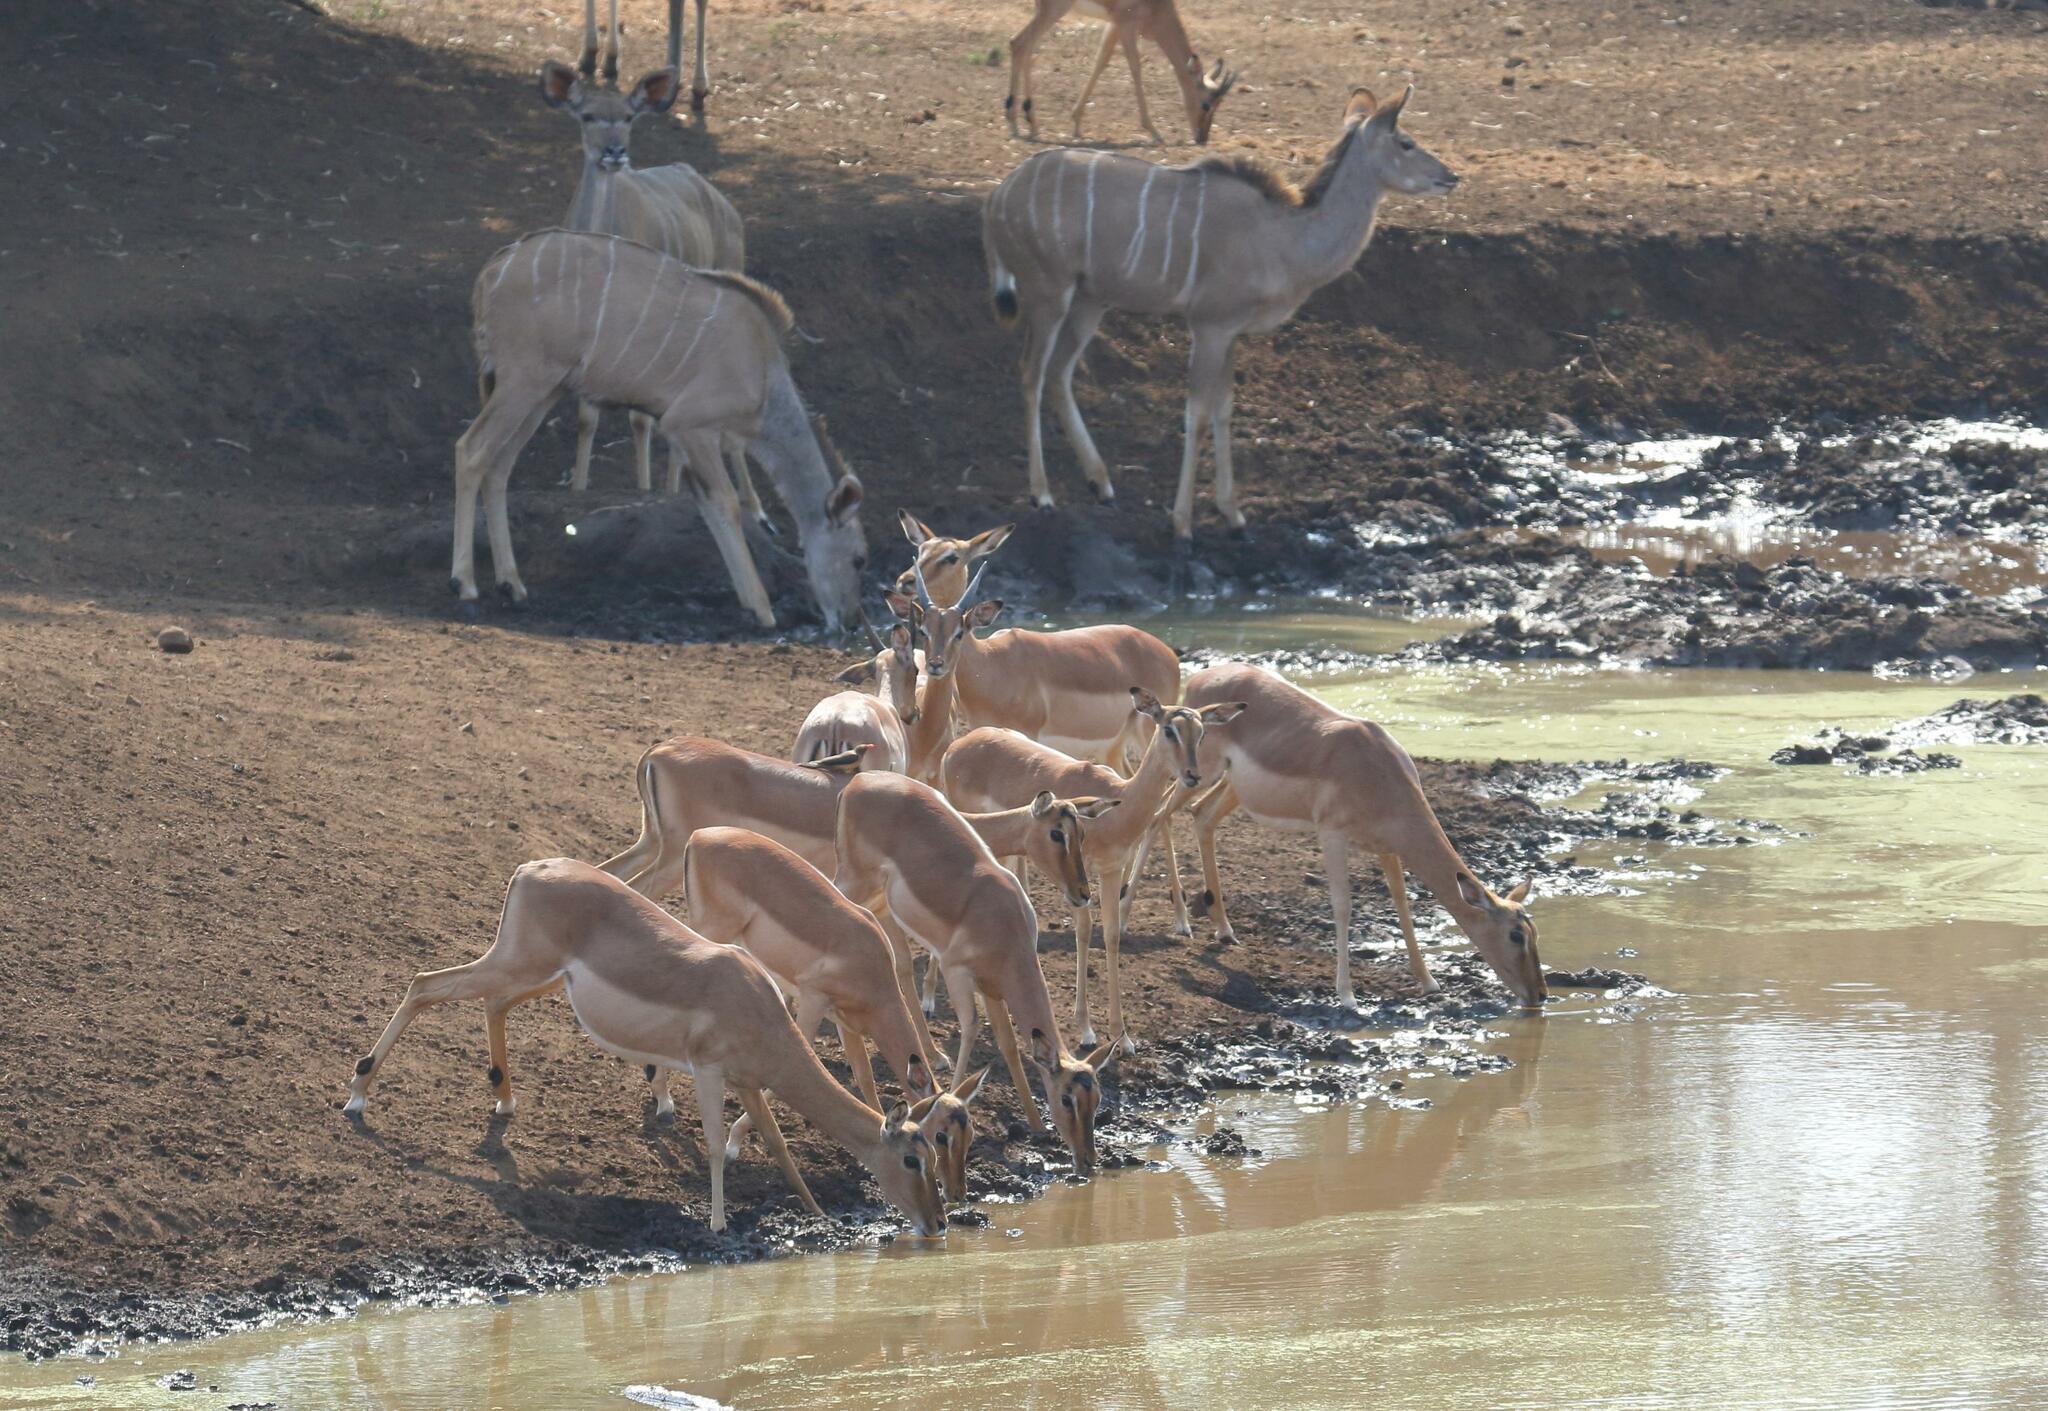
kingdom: Animalia
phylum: Chordata
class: Mammalia
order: Artiodactyla
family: Bovidae
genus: Aepyceros
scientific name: Aepyceros melampus
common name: Impala
